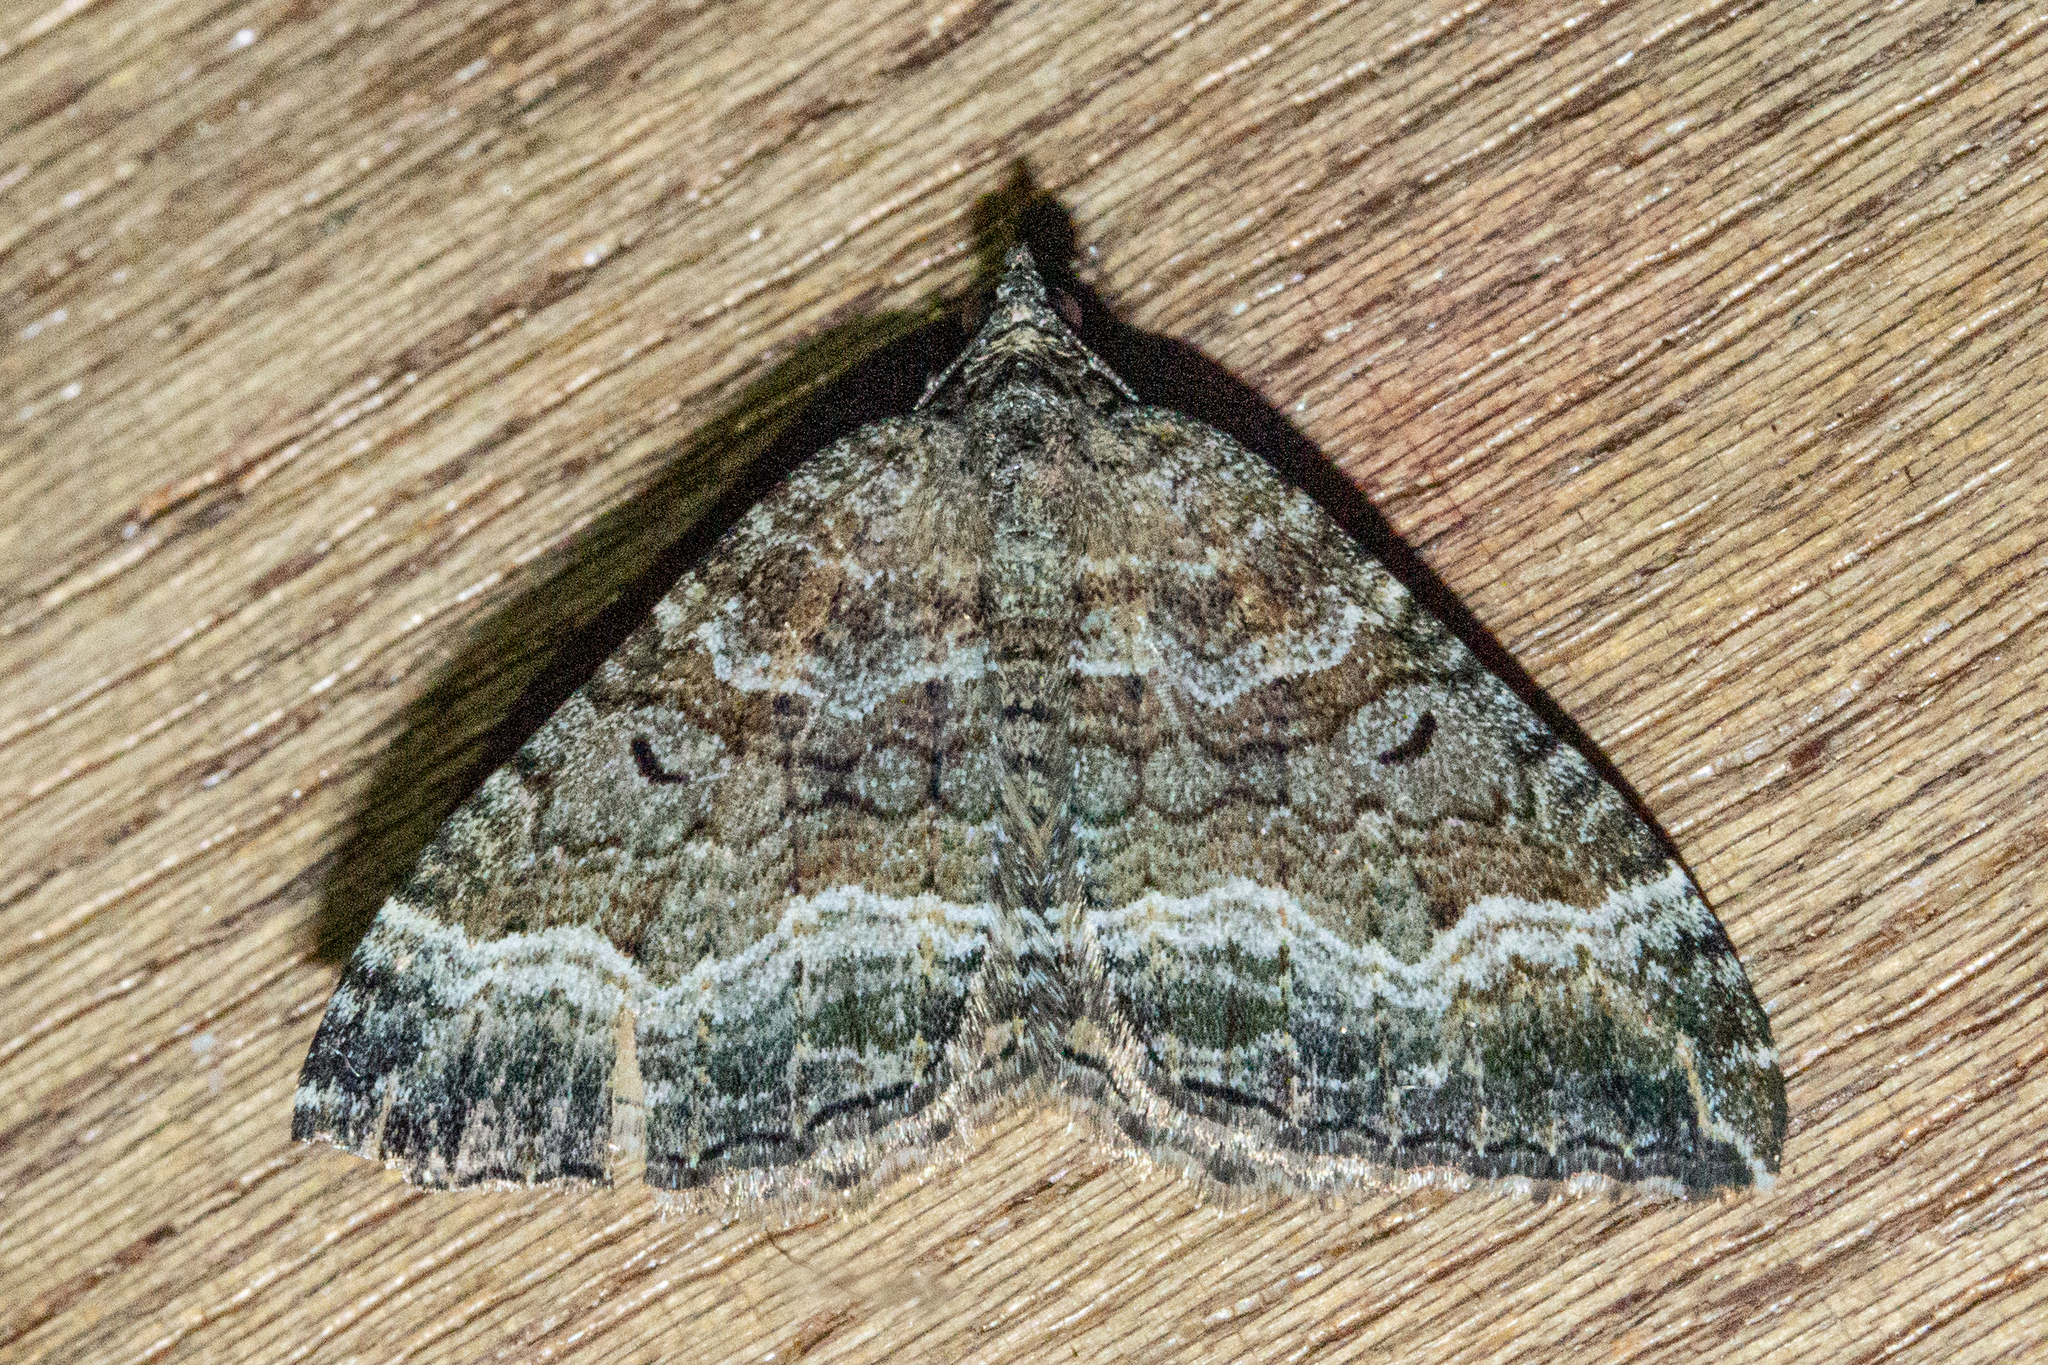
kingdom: Animalia
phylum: Arthropoda
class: Insecta
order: Lepidoptera
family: Geometridae
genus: Hydriomena
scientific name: Hydriomena deltoidata
